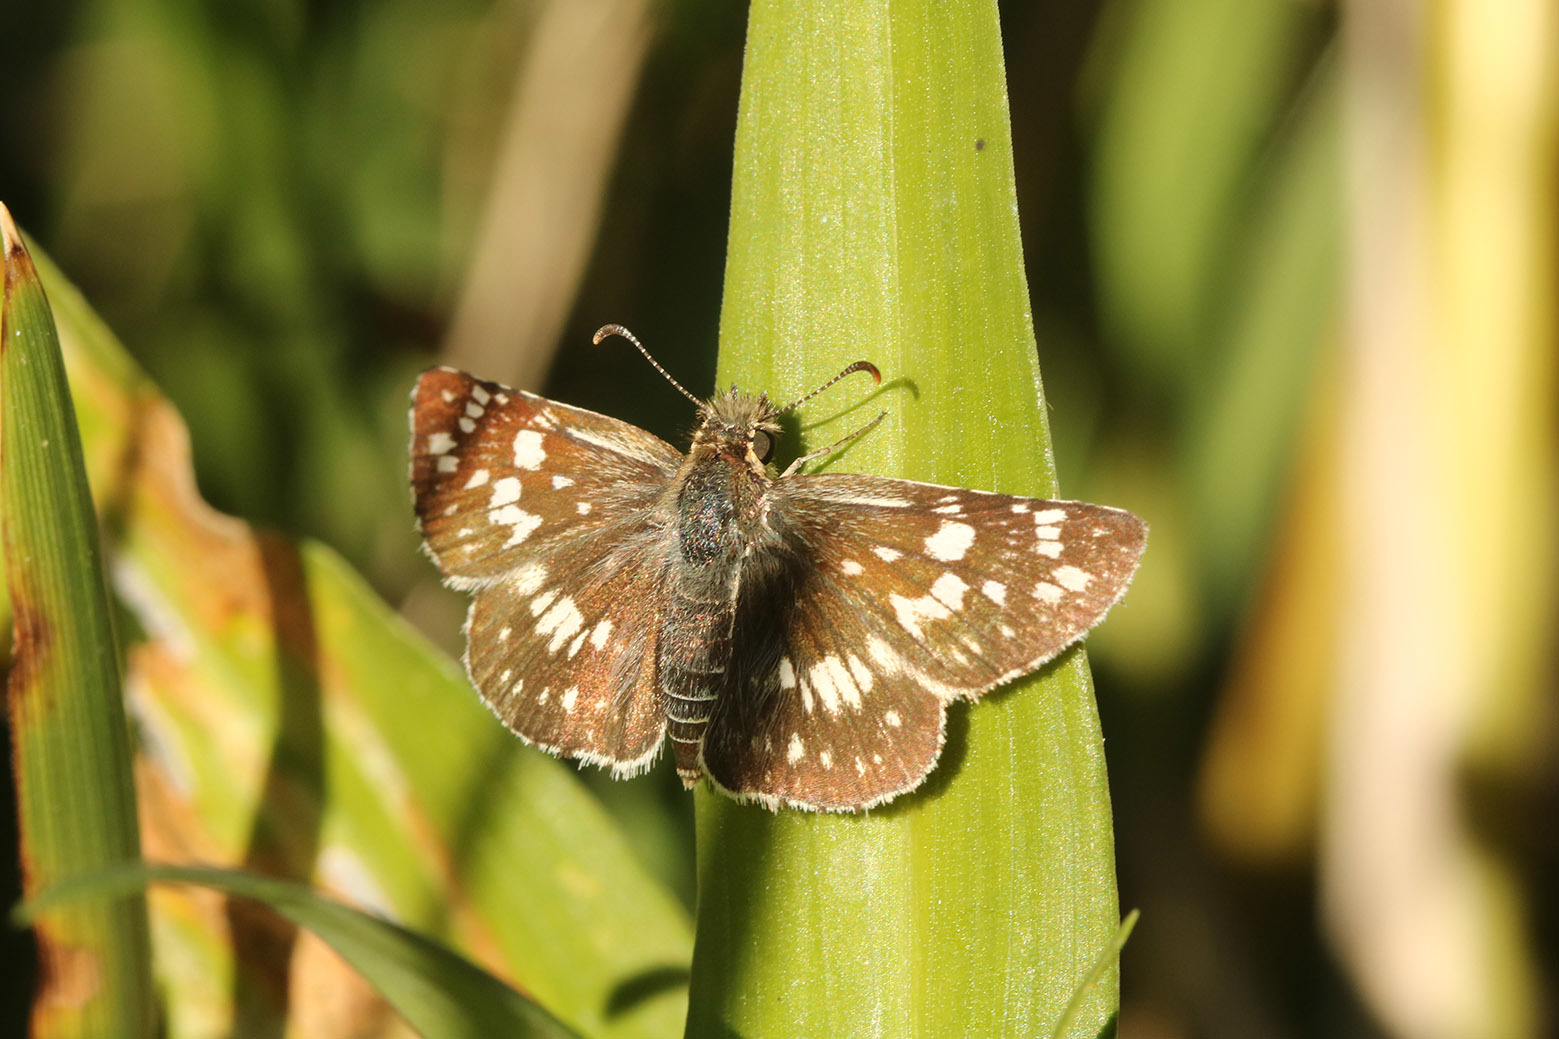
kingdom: Animalia
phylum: Arthropoda
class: Insecta
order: Lepidoptera
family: Hesperiidae
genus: Burnsius
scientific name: Burnsius orcynoides
